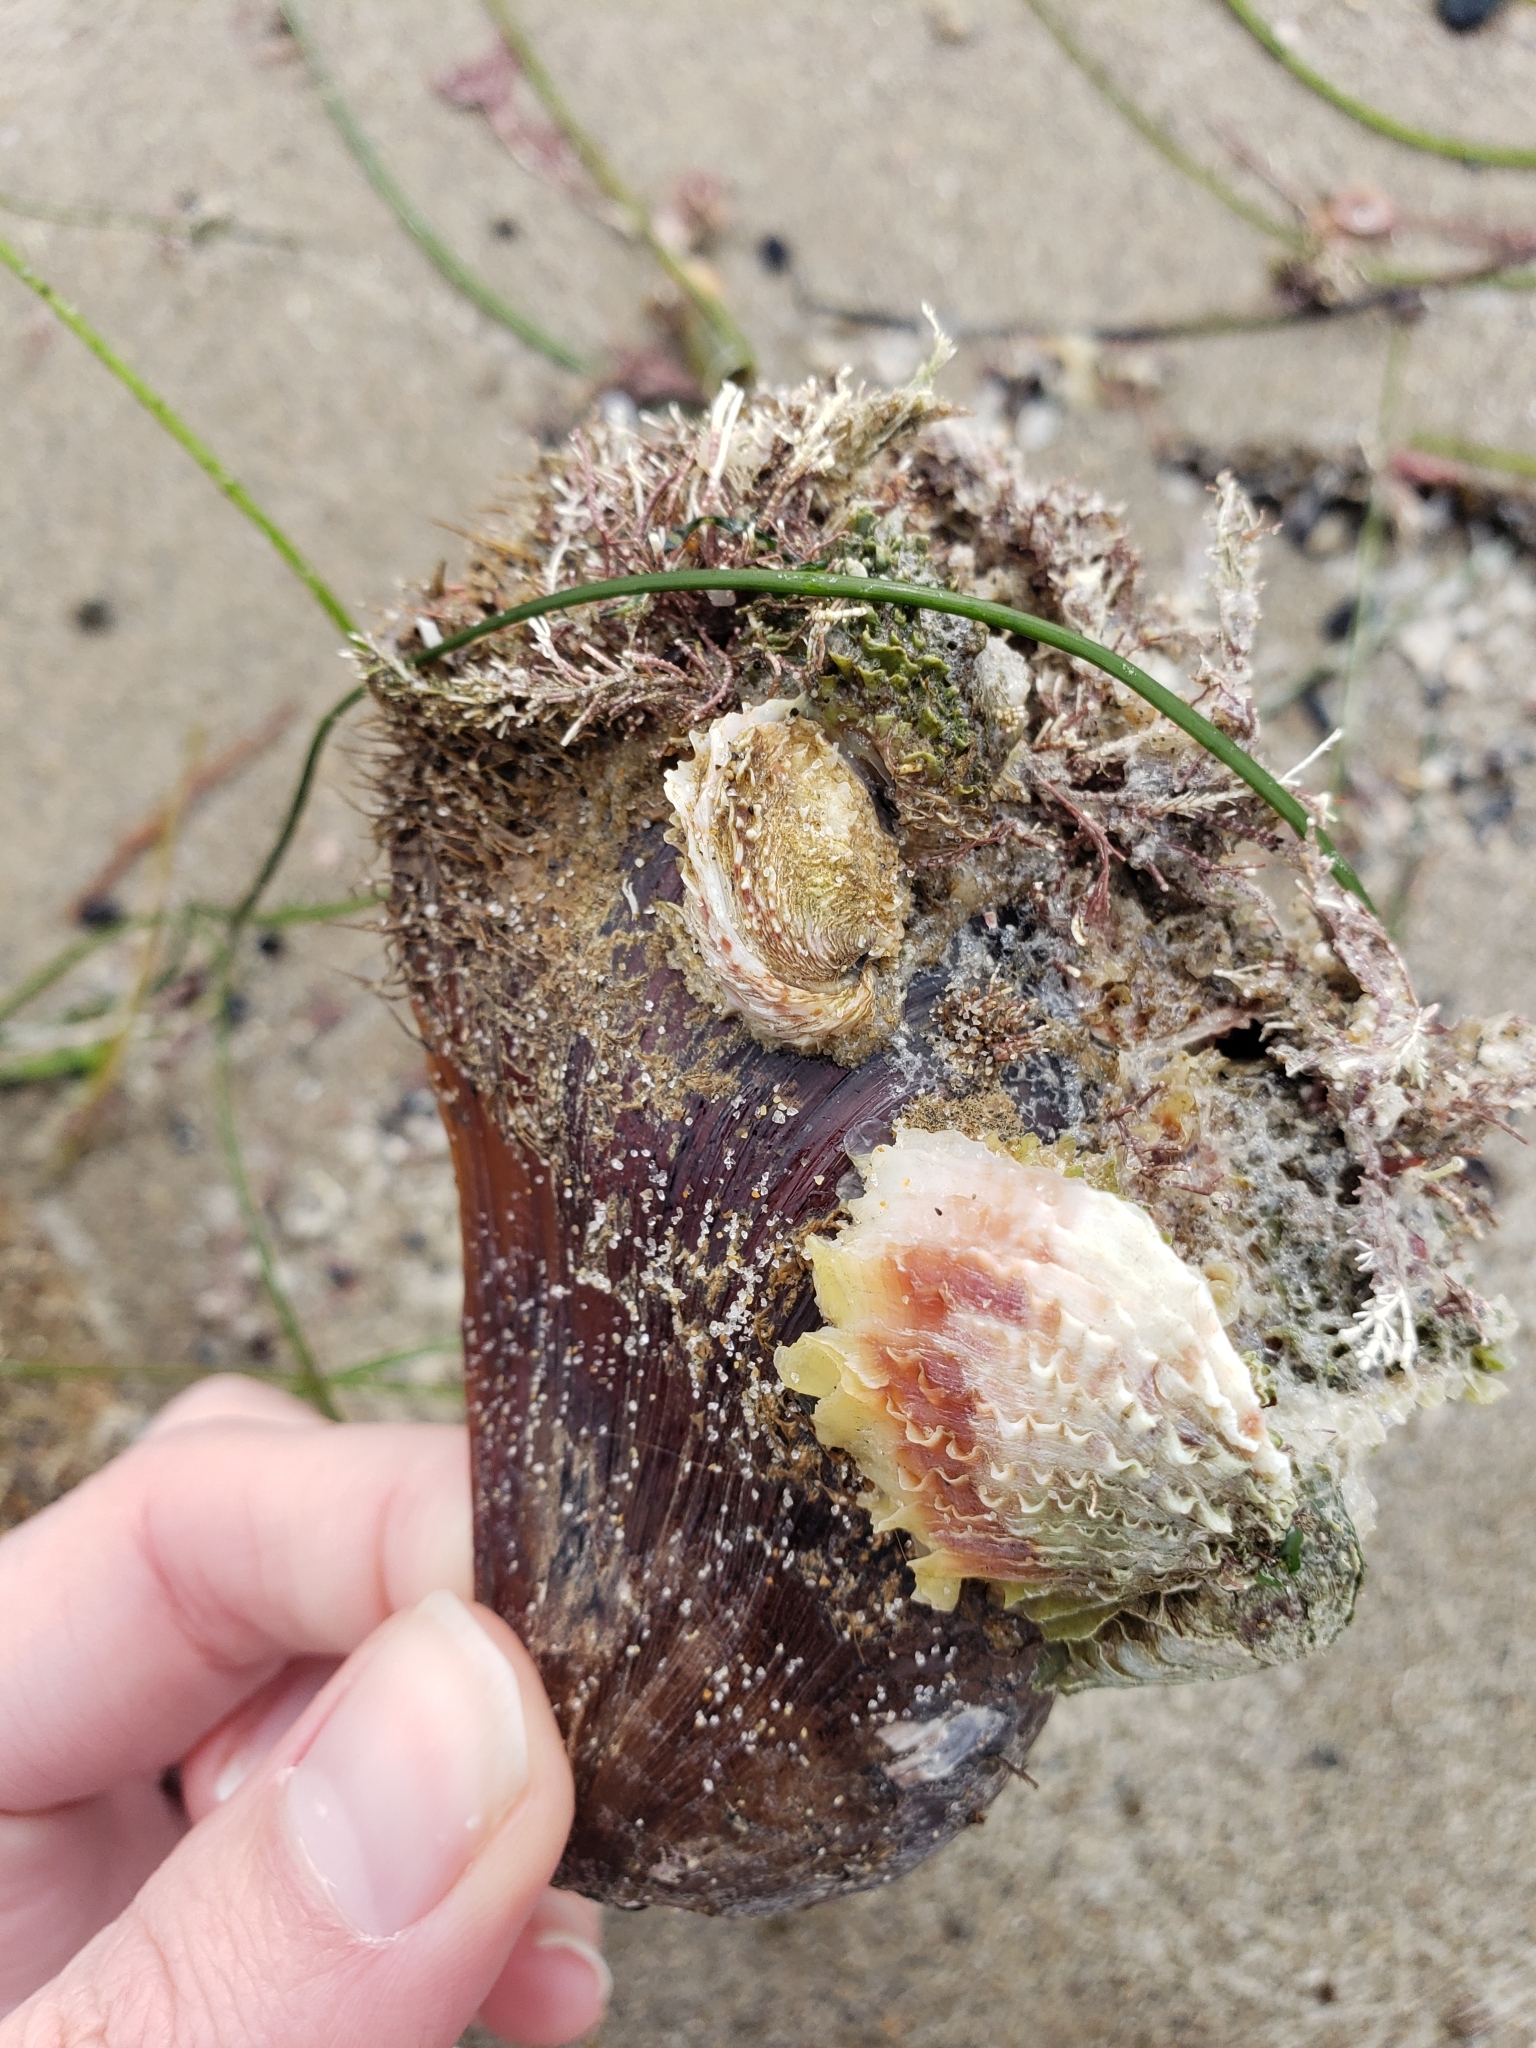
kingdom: Animalia
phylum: Mollusca
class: Bivalvia
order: Mytilida
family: Mytilidae
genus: Modiolus
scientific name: Modiolus capax
